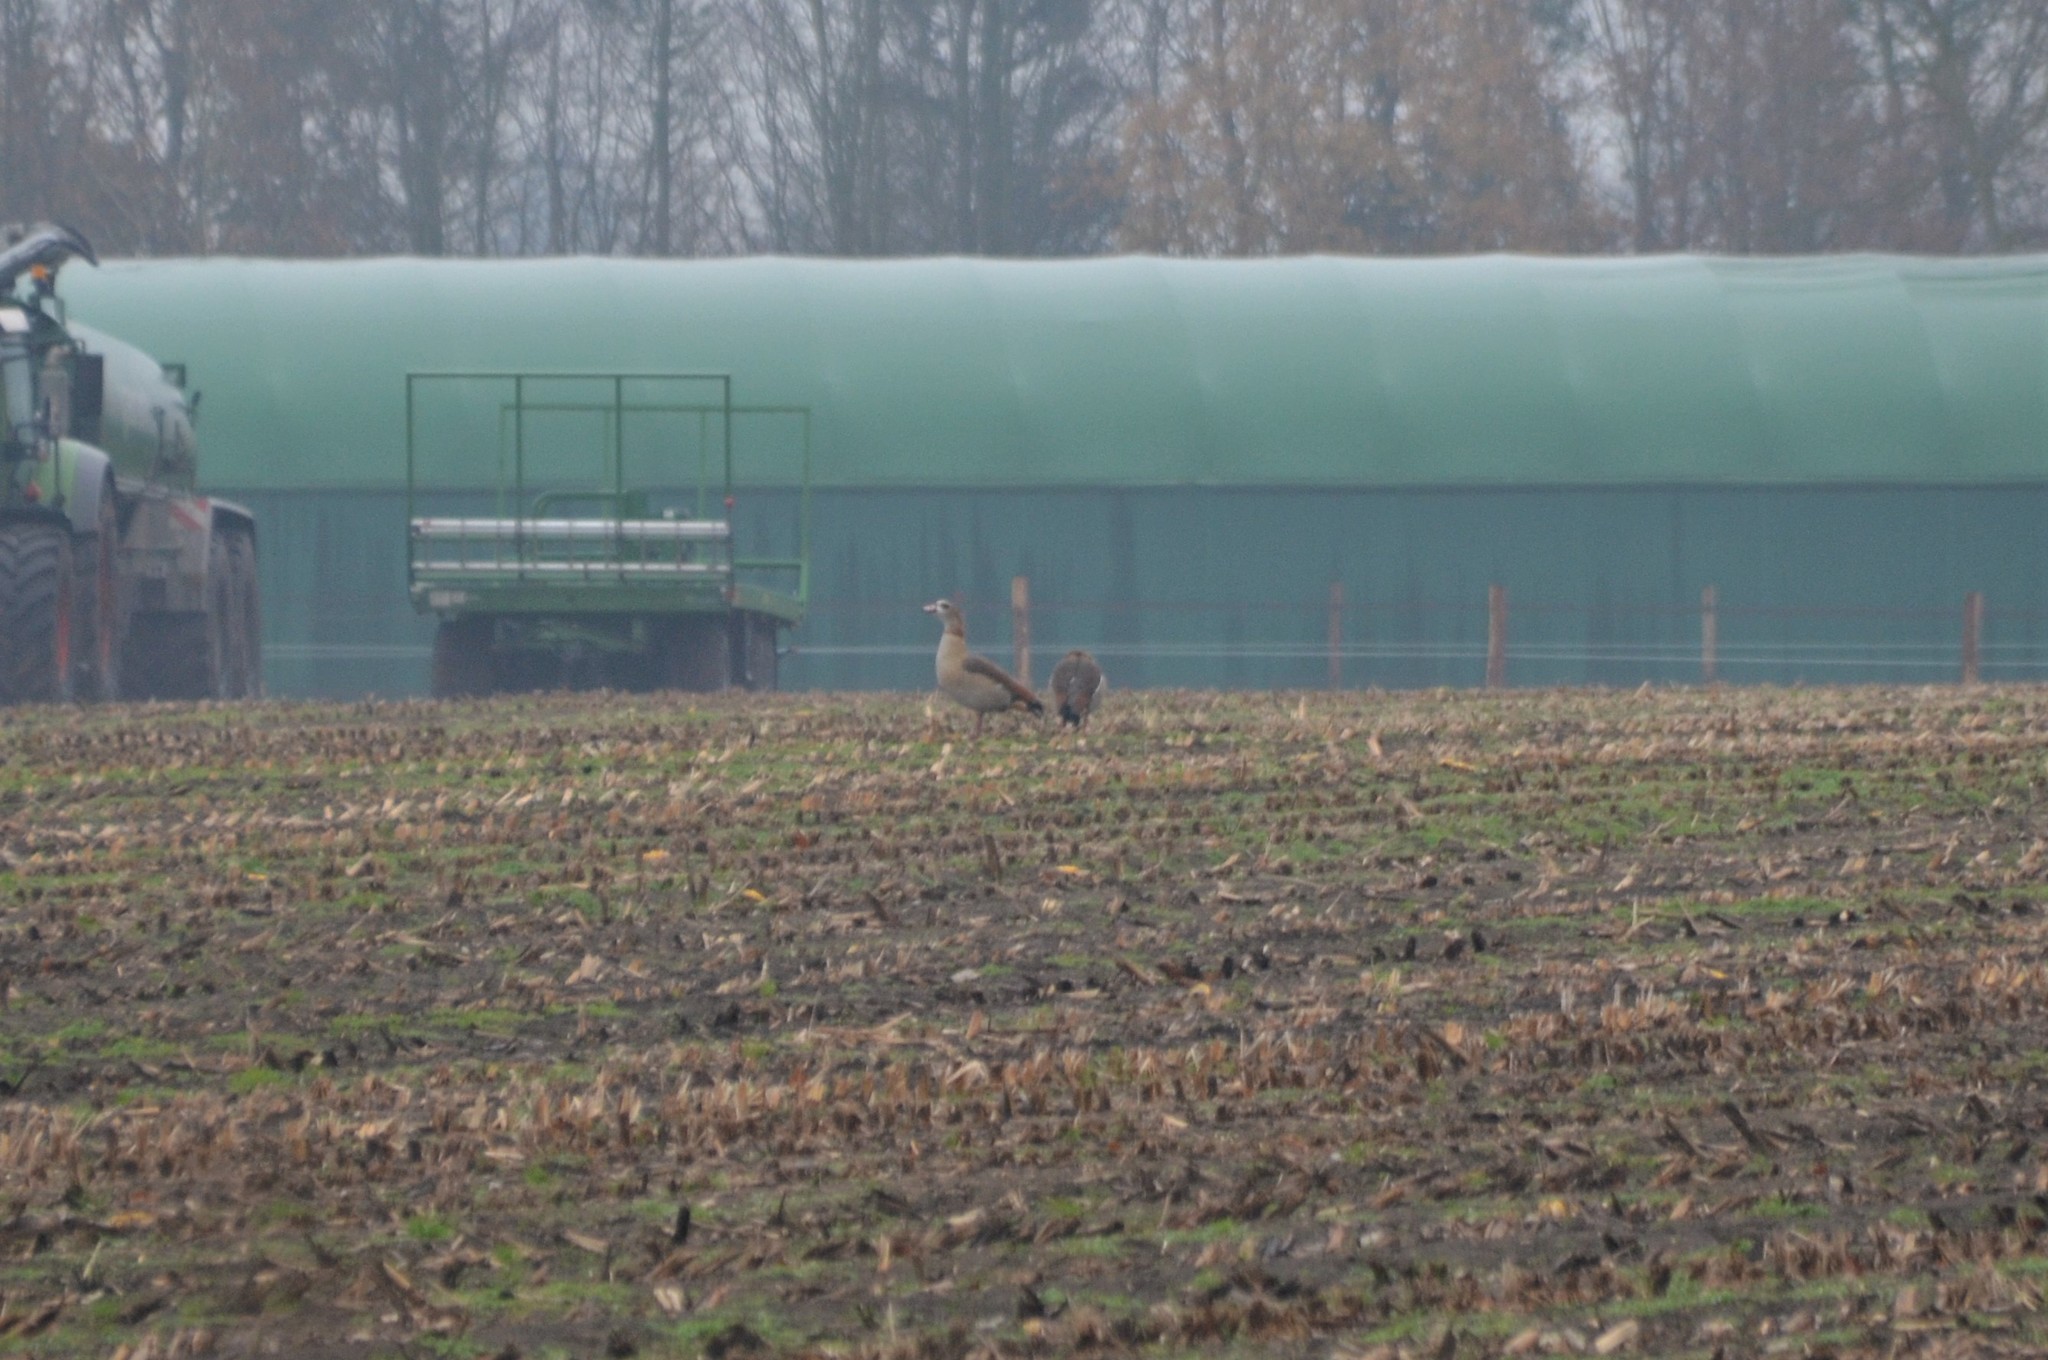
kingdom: Animalia
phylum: Chordata
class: Aves
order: Anseriformes
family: Anatidae
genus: Alopochen
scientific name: Alopochen aegyptiaca
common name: Egyptian goose
